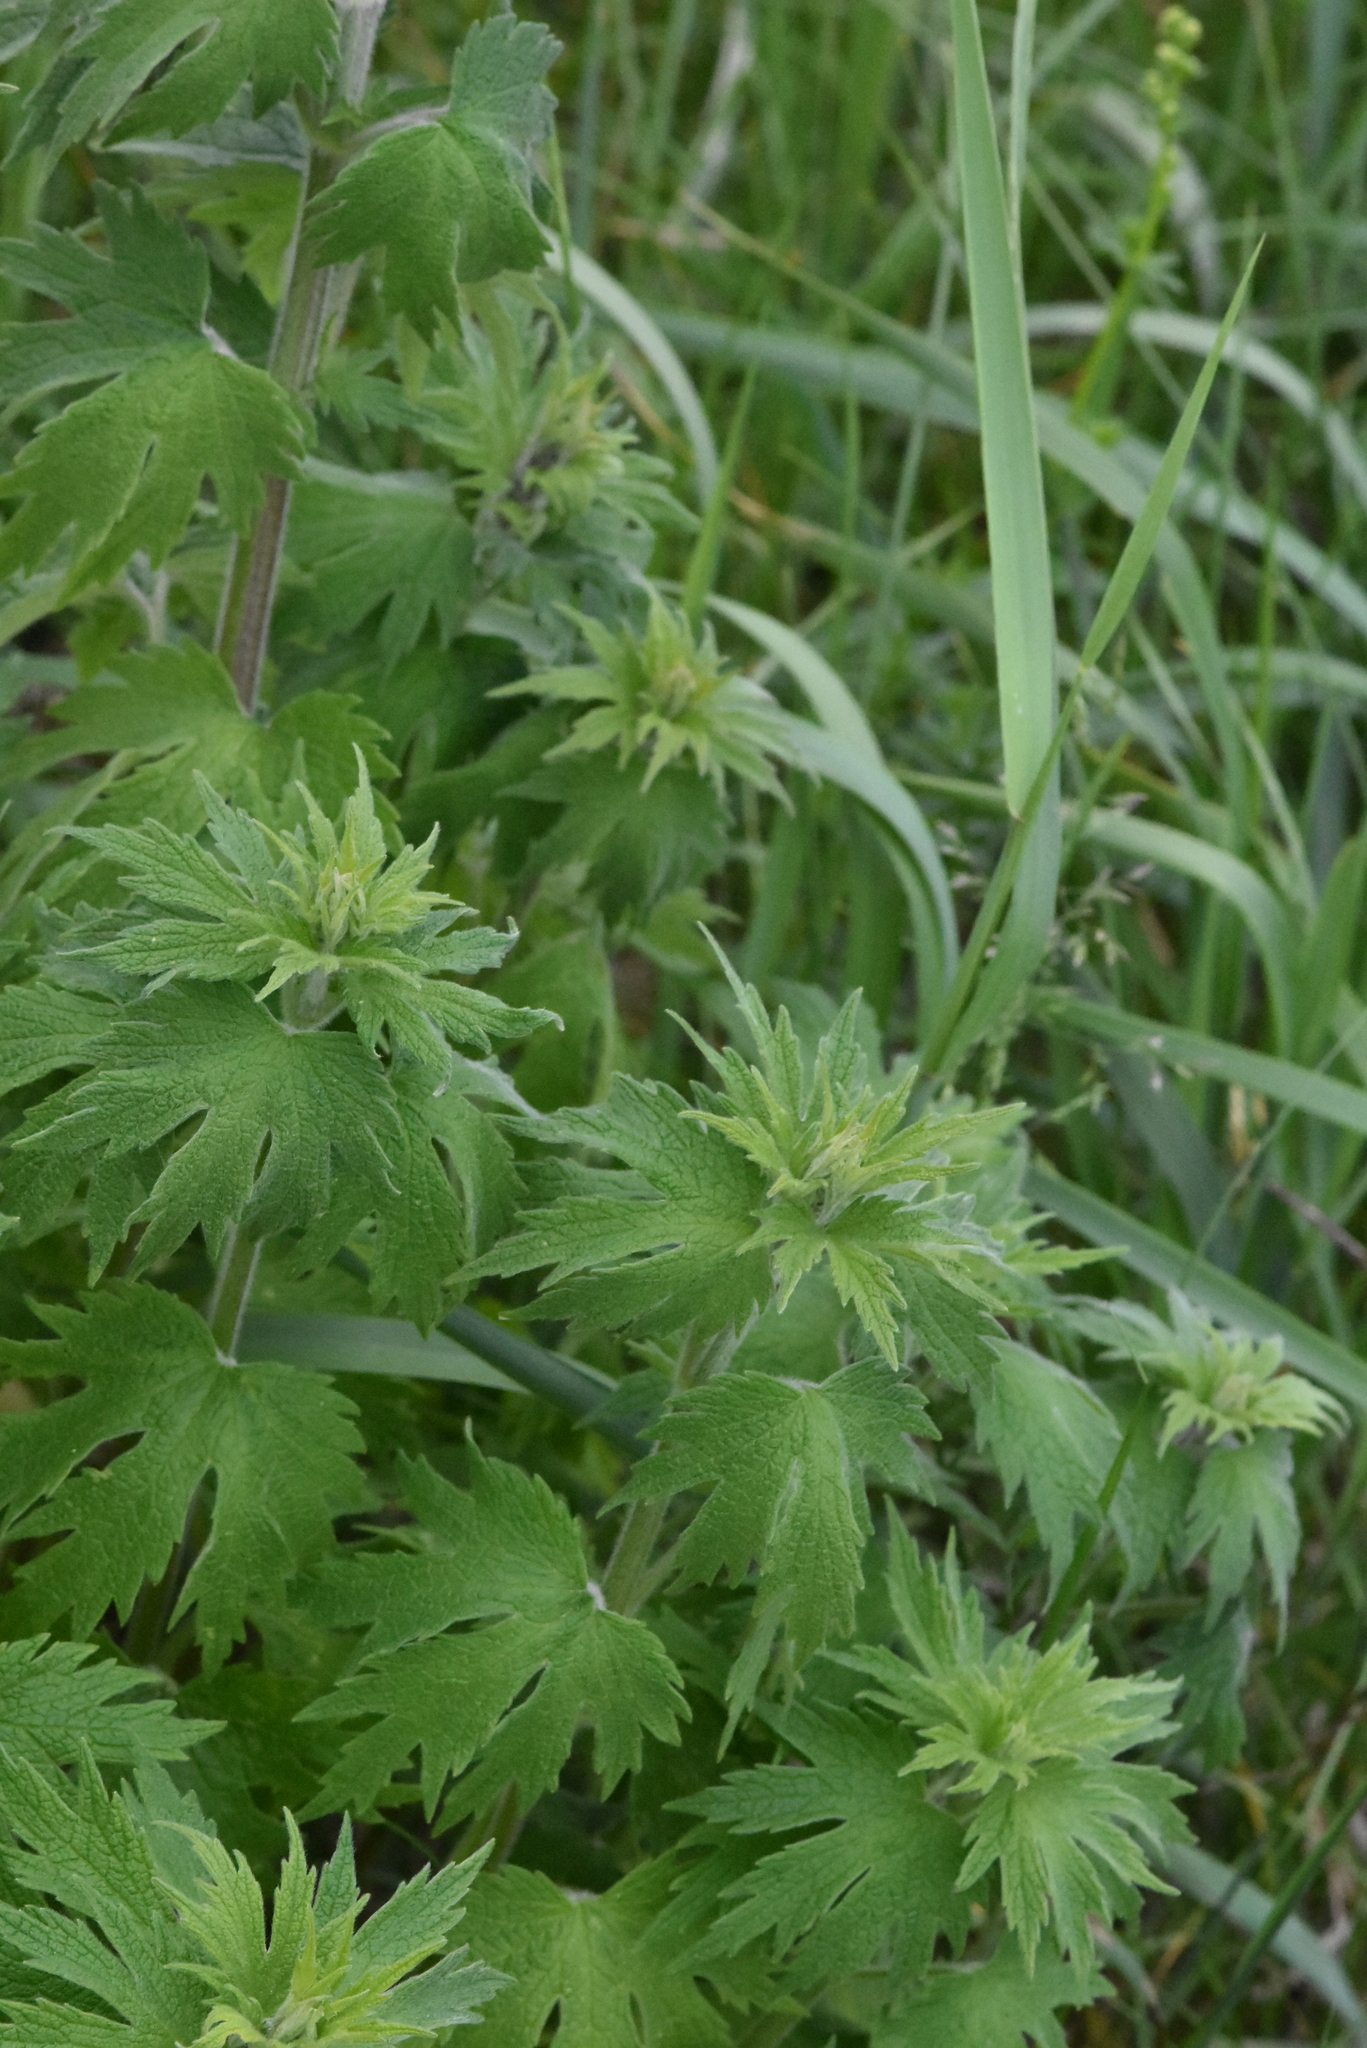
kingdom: Plantae
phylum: Tracheophyta
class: Magnoliopsida
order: Lamiales
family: Lamiaceae
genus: Leonurus
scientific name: Leonurus quinquelobatus
